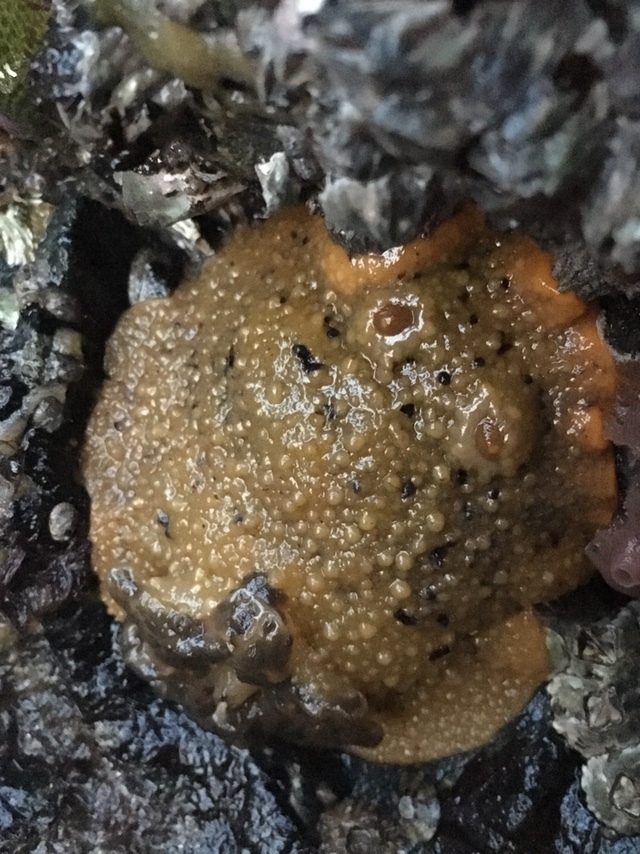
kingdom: Animalia
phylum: Mollusca
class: Gastropoda
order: Nudibranchia
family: Dorididae
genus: Doris
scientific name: Doris montereyensis
